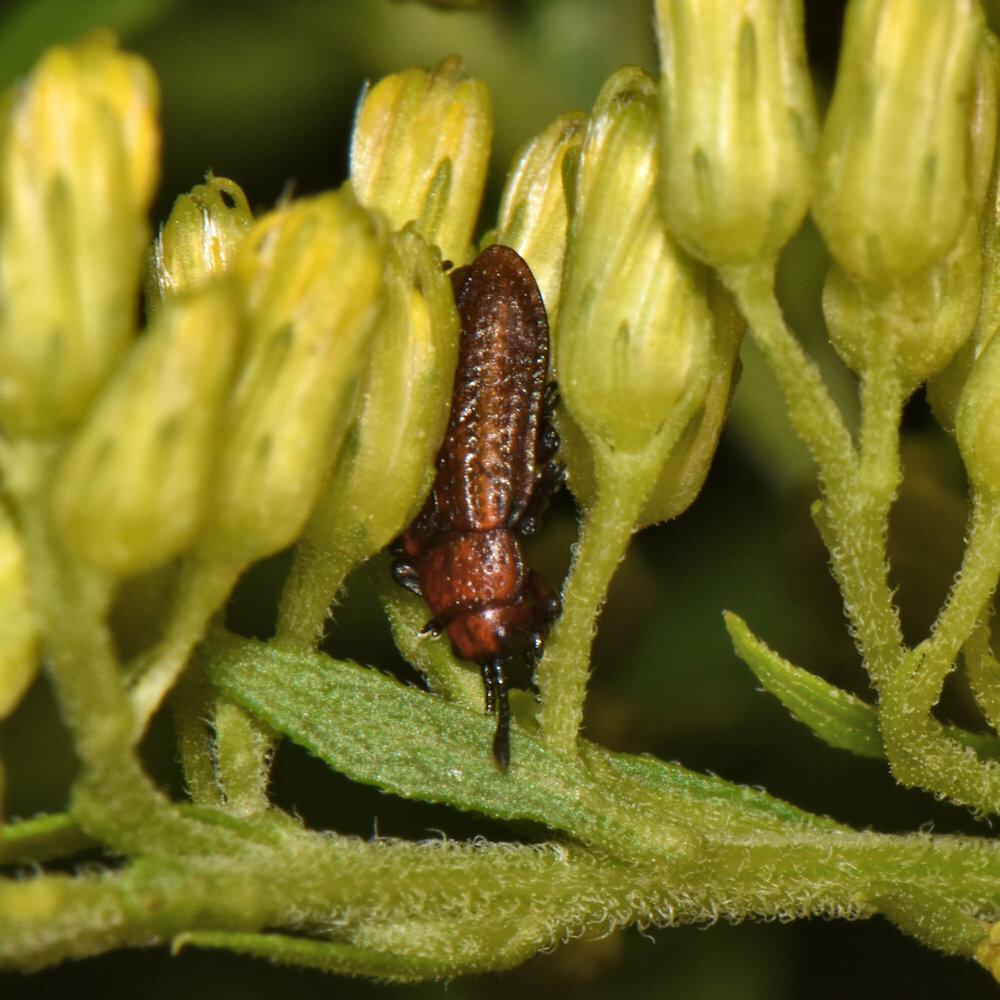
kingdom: Animalia
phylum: Arthropoda
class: Insecta
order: Coleoptera
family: Chrysomelidae
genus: Microrhopala
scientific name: Microrhopala vittata
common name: Goldenrod leaf miner beetle
